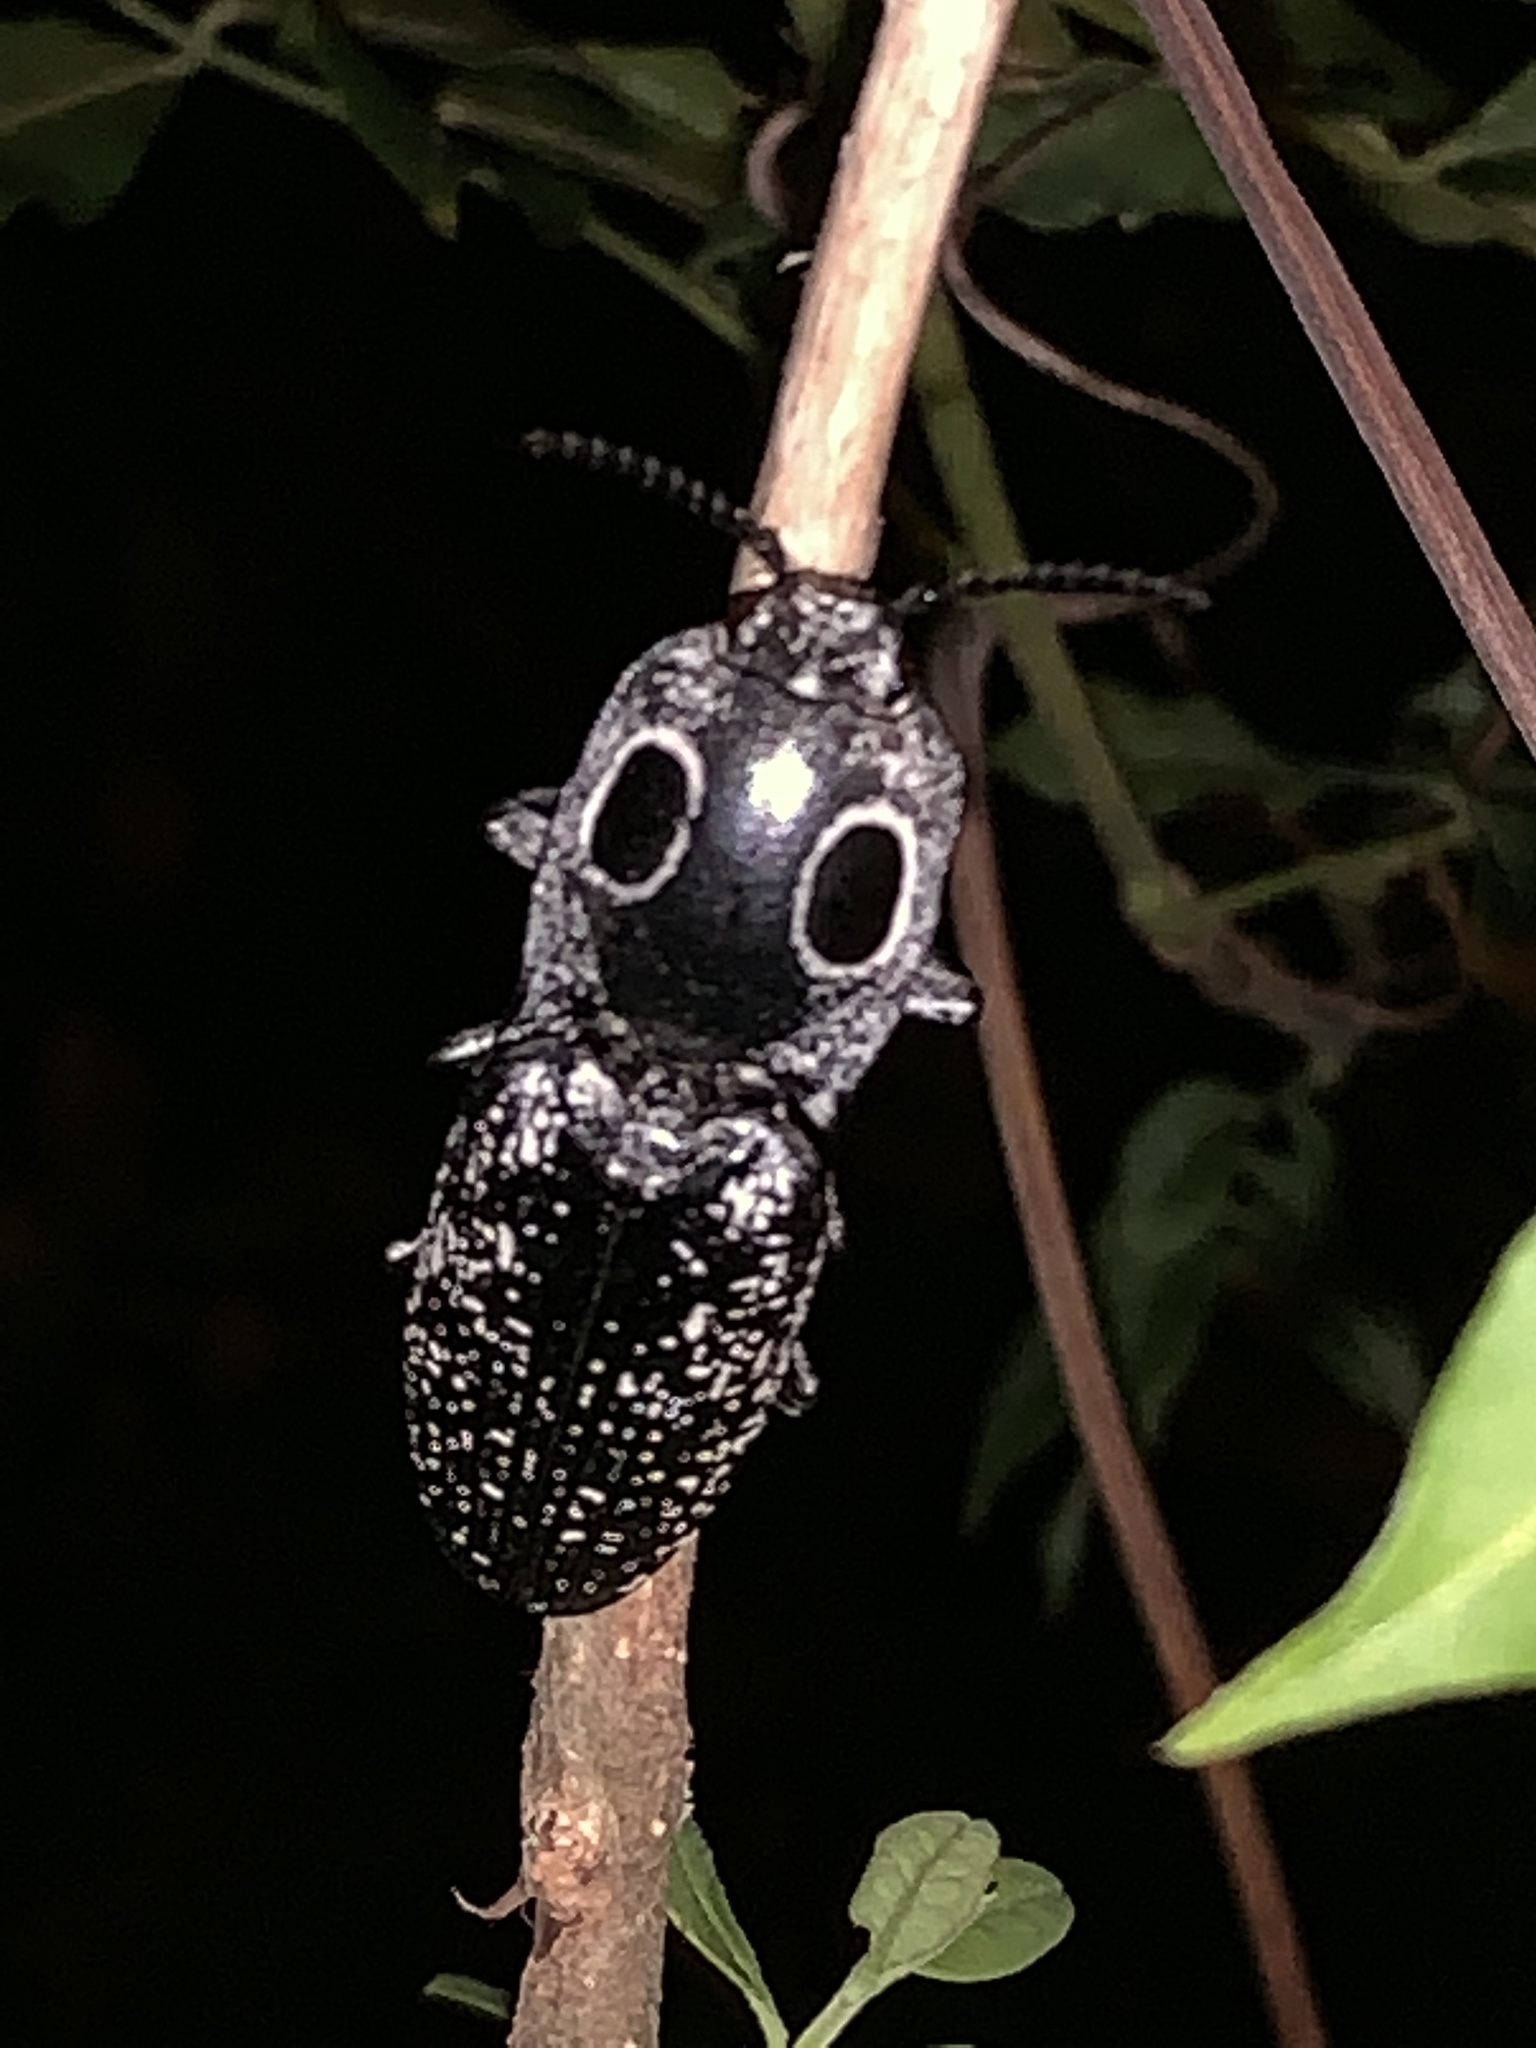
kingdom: Animalia
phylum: Arthropoda
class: Insecta
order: Coleoptera
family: Elateridae
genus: Alaus
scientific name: Alaus oculatus
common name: Eastern eyed click beetle
